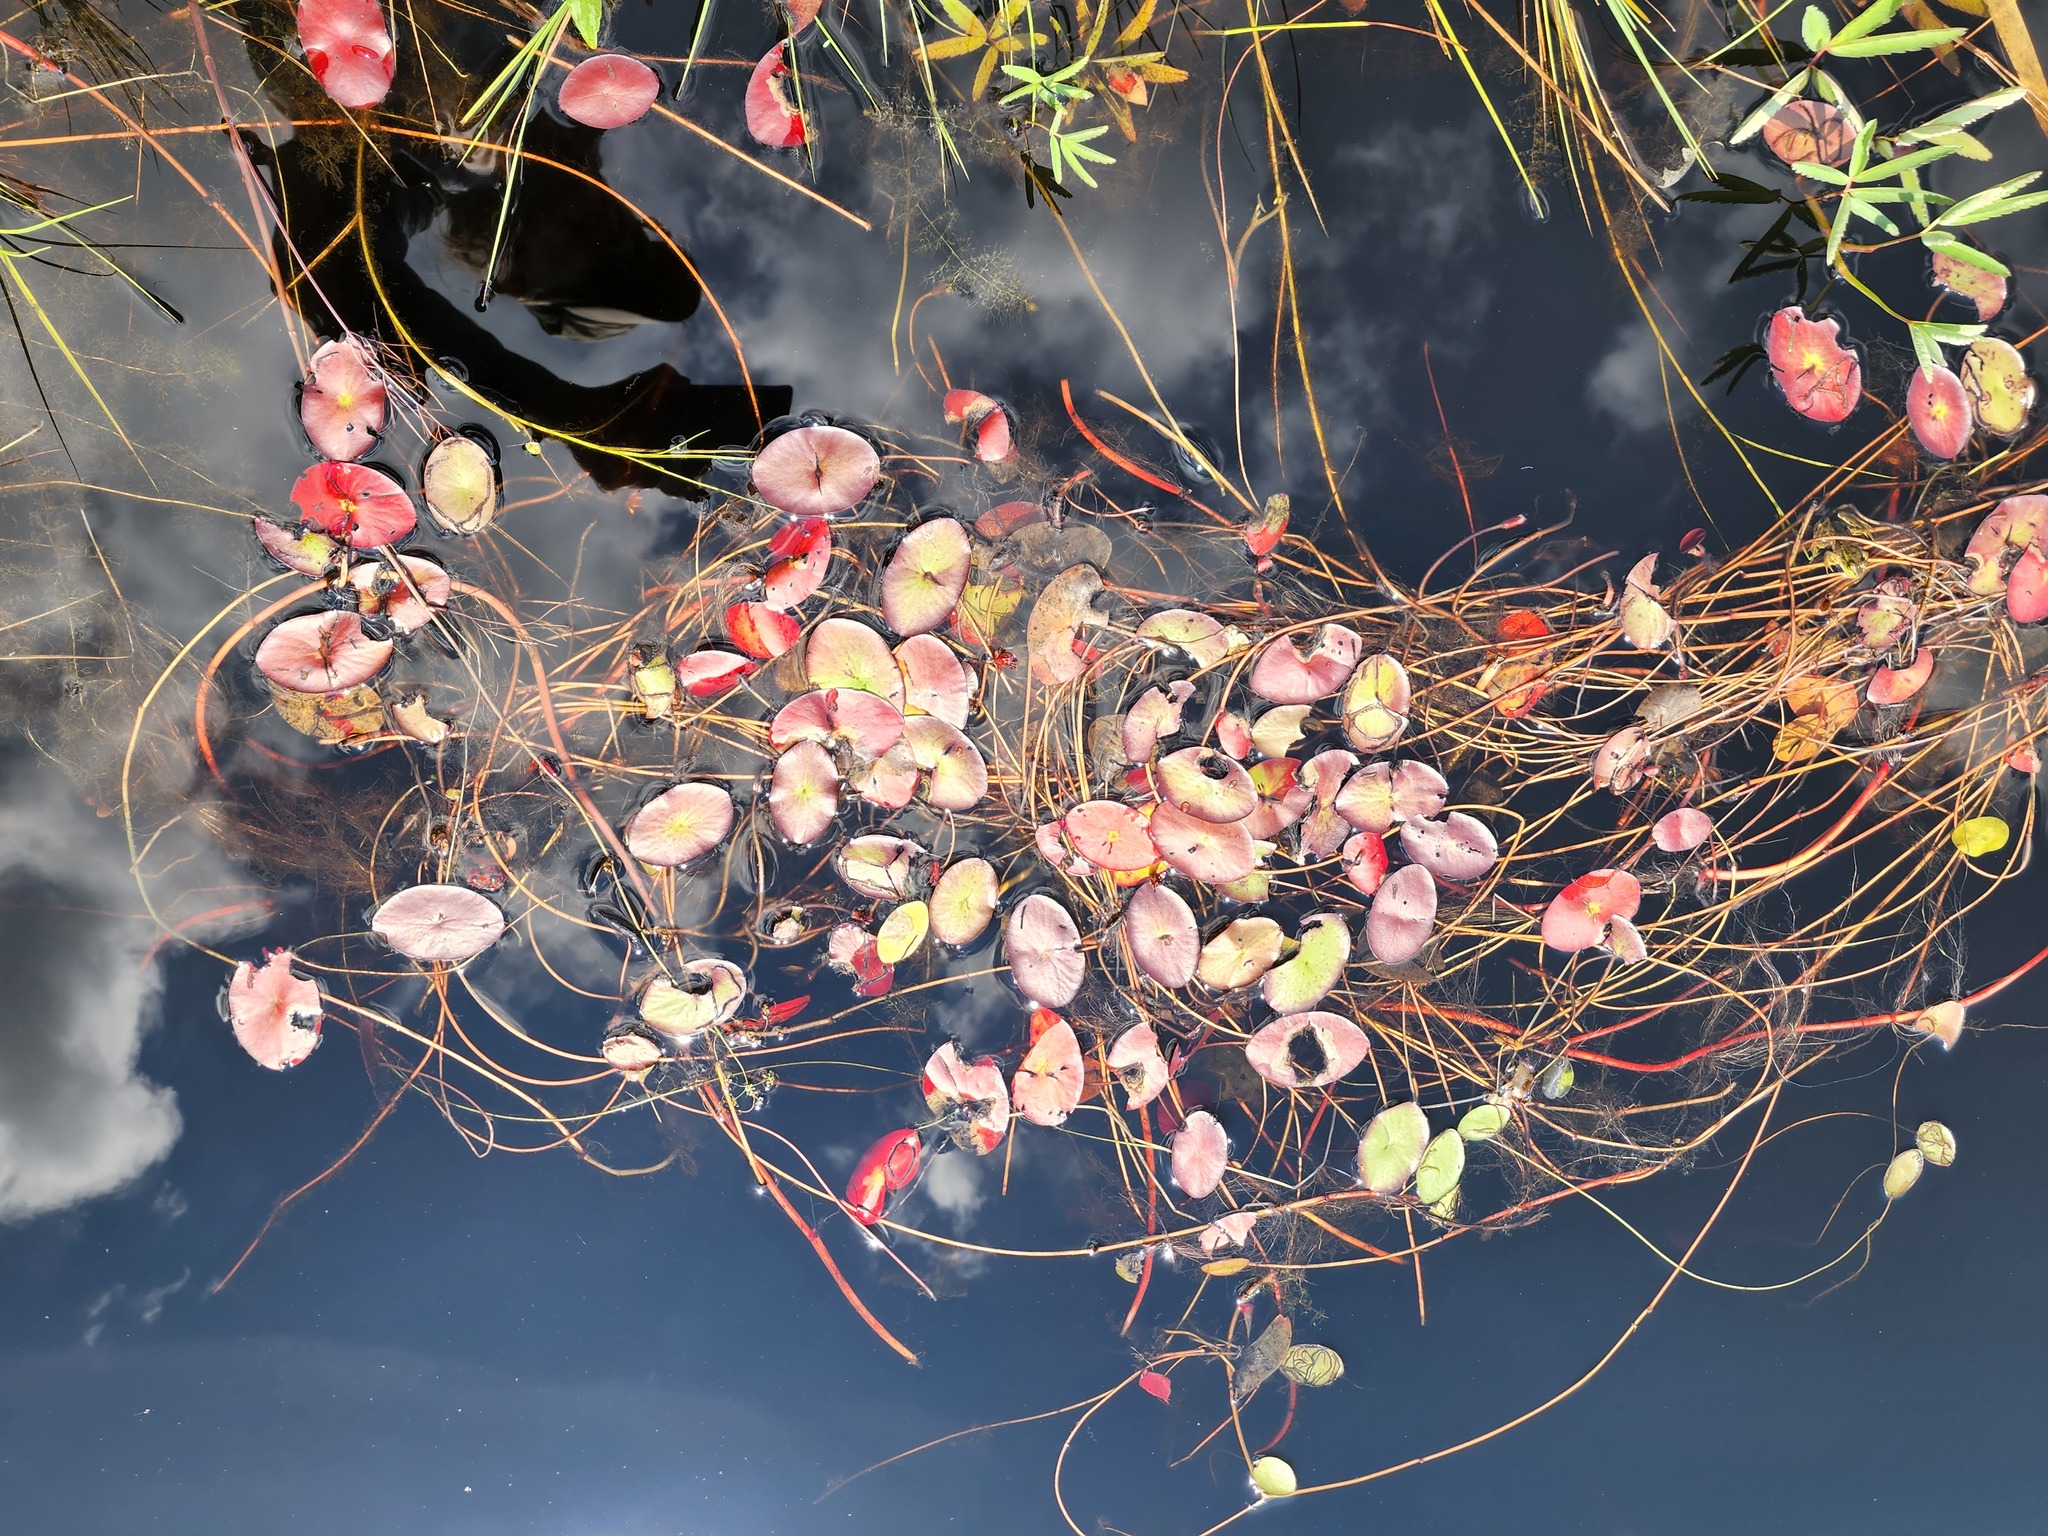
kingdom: Plantae
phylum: Tracheophyta
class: Magnoliopsida
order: Nymphaeales
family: Cabombaceae
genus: Brasenia
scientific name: Brasenia schreberi
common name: Water-shield
